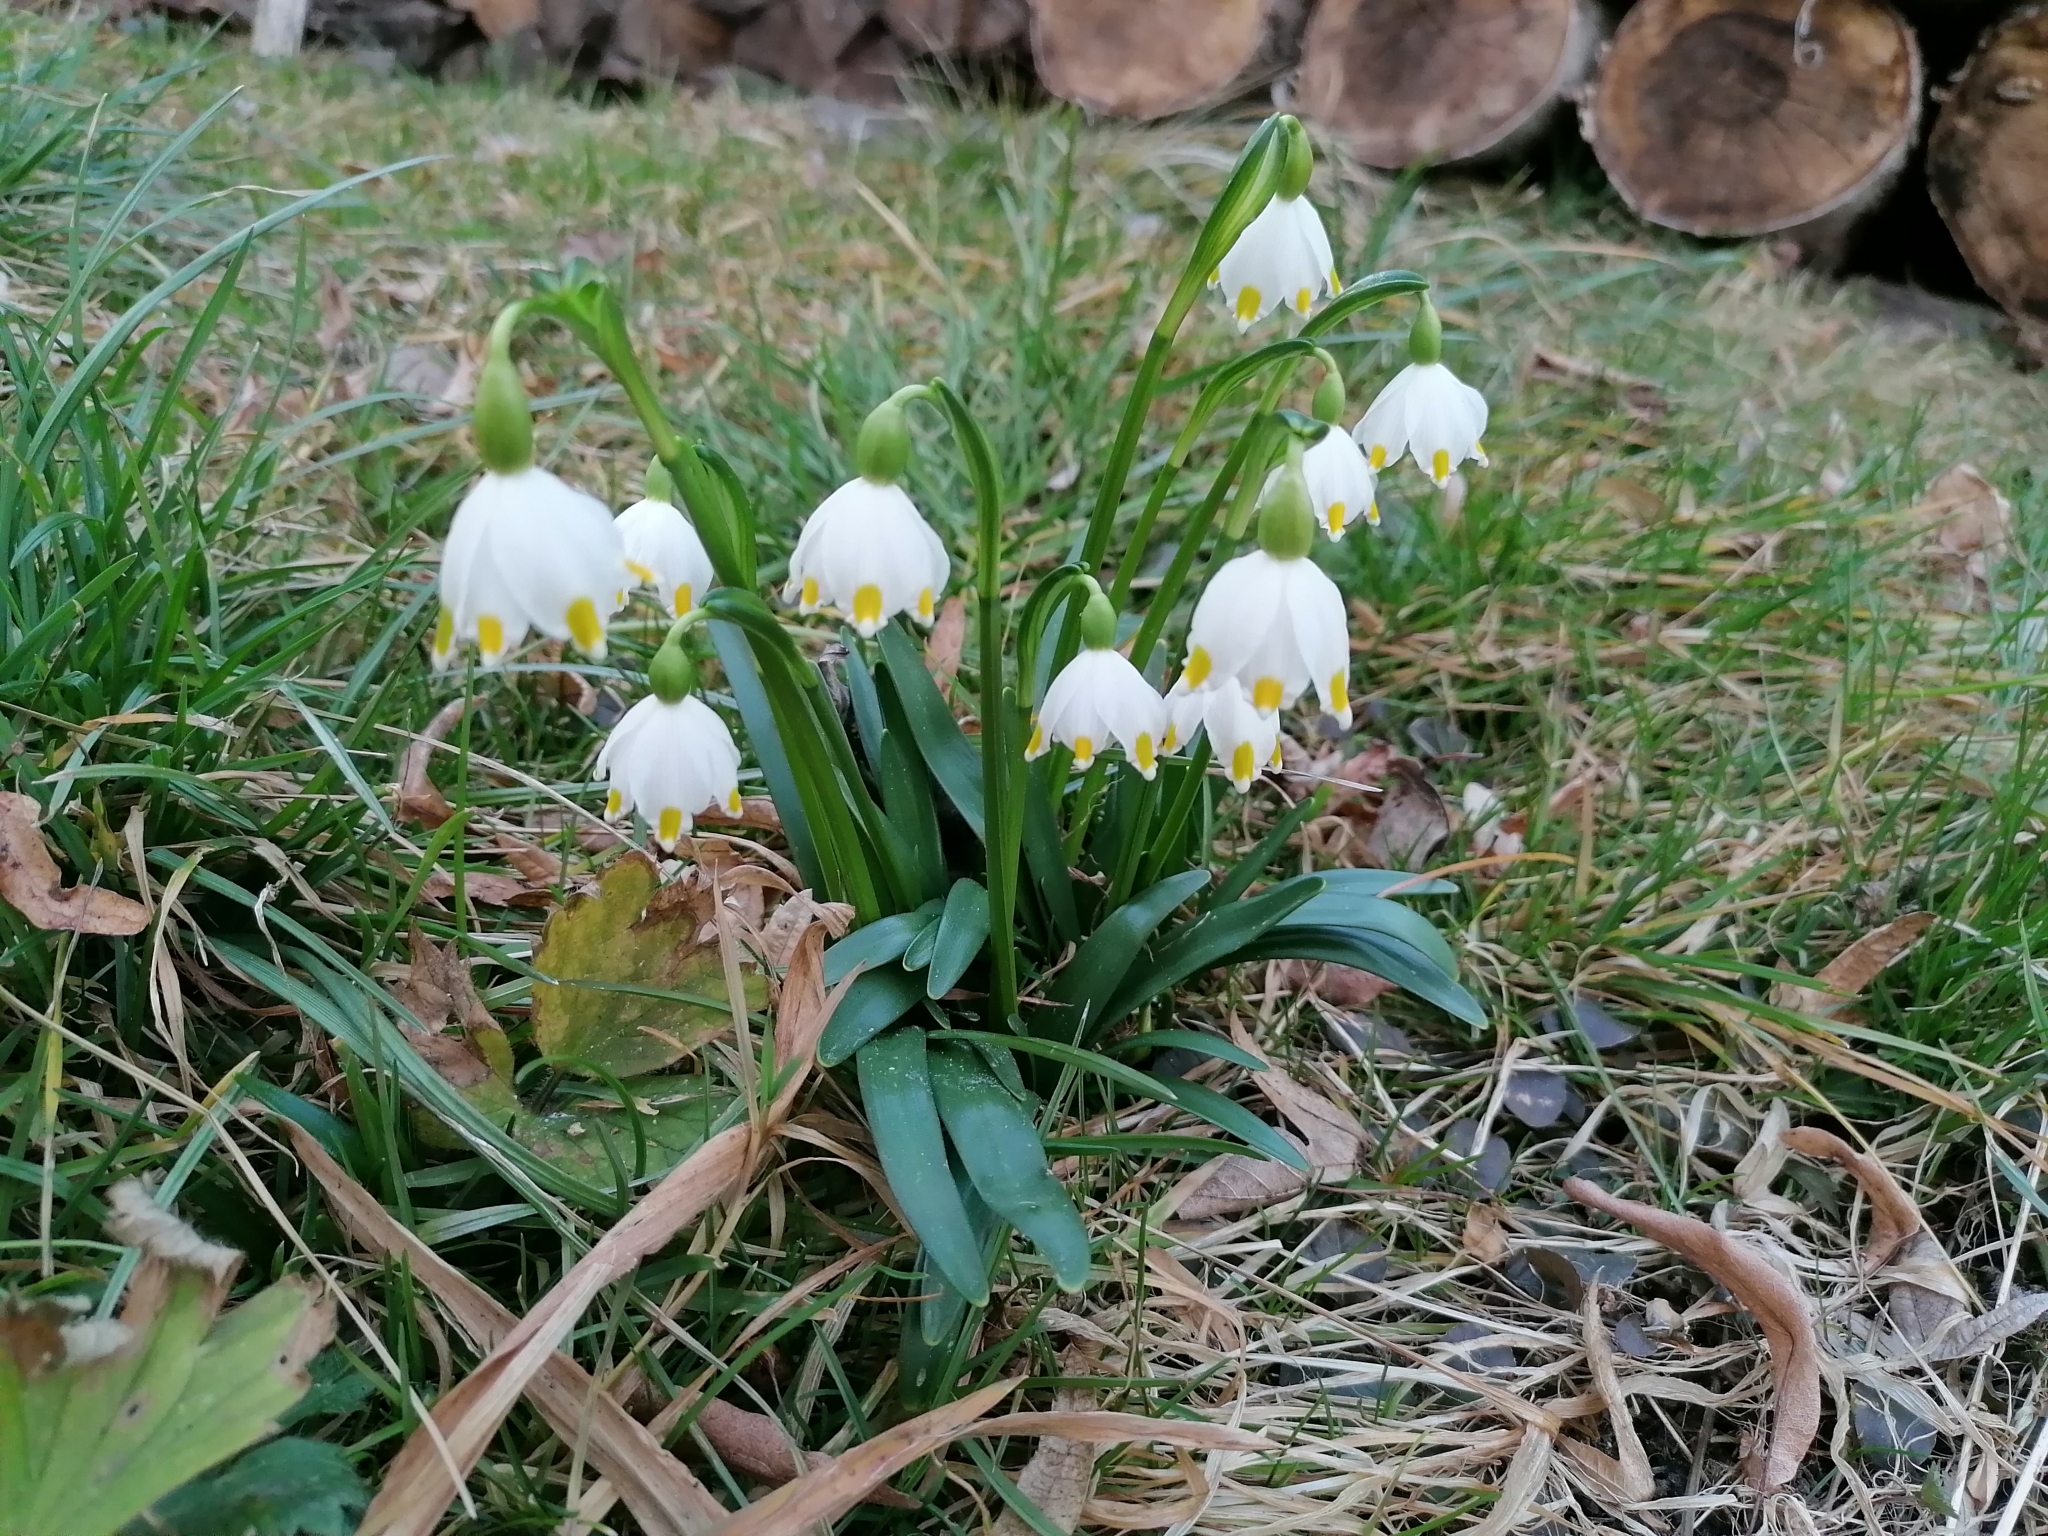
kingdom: Plantae
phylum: Tracheophyta
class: Liliopsida
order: Asparagales
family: Amaryllidaceae
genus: Leucojum
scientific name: Leucojum vernum
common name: Spring snowflake
